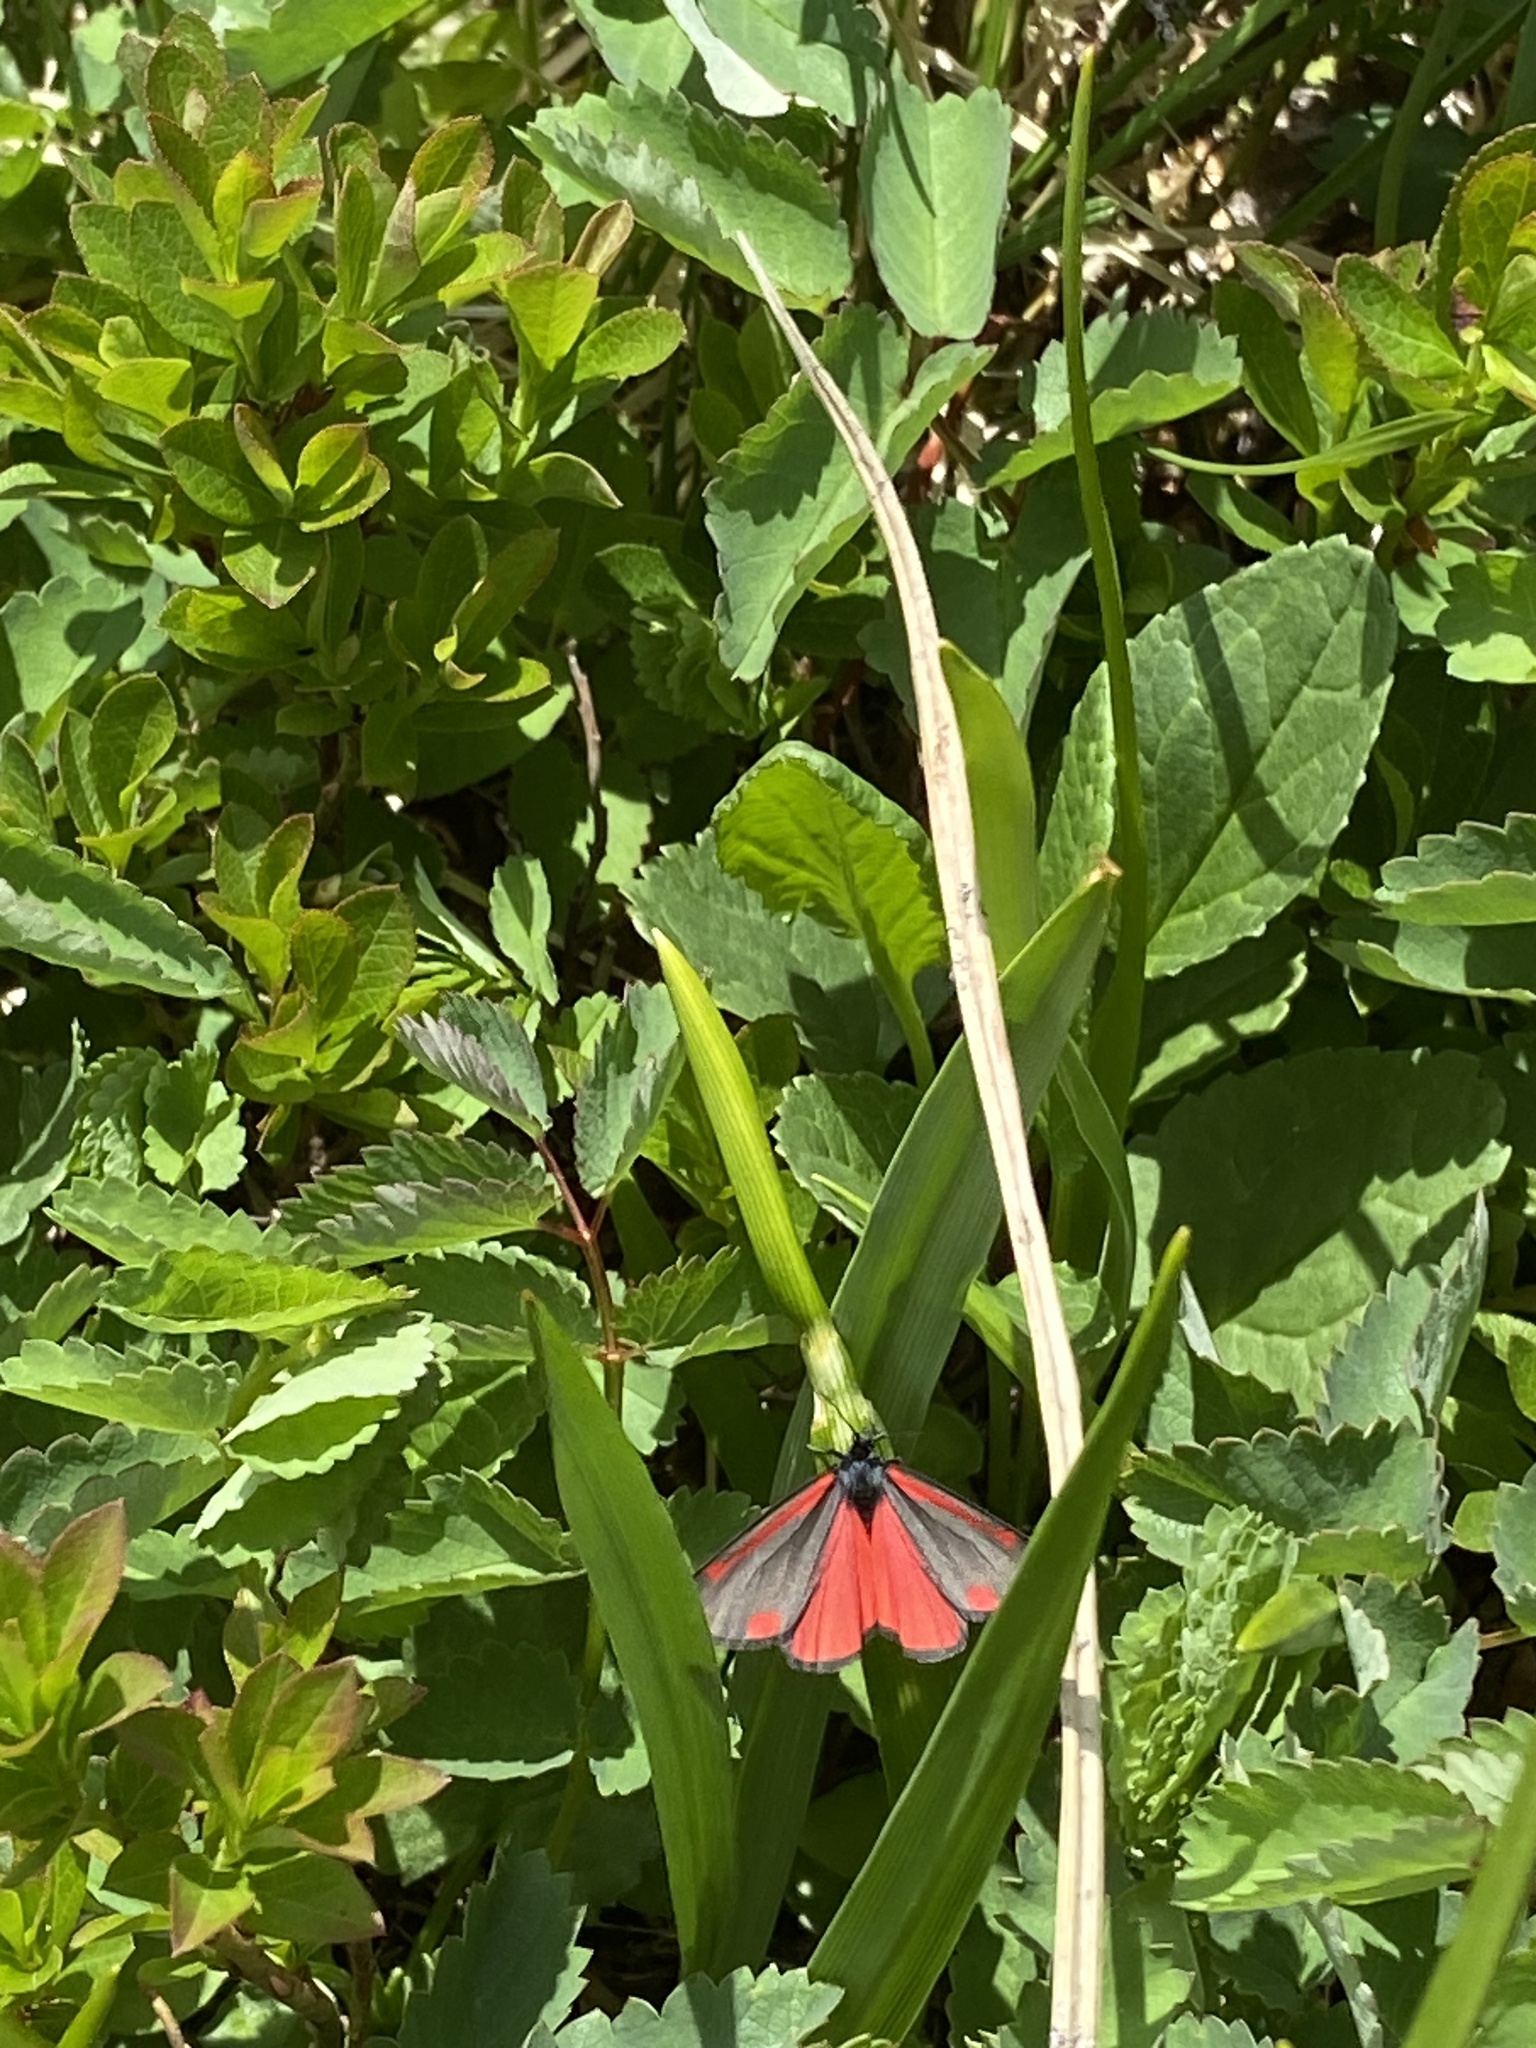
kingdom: Animalia
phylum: Arthropoda
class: Insecta
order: Lepidoptera
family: Erebidae
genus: Tyria
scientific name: Tyria jacobaeae
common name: Cinnabar
